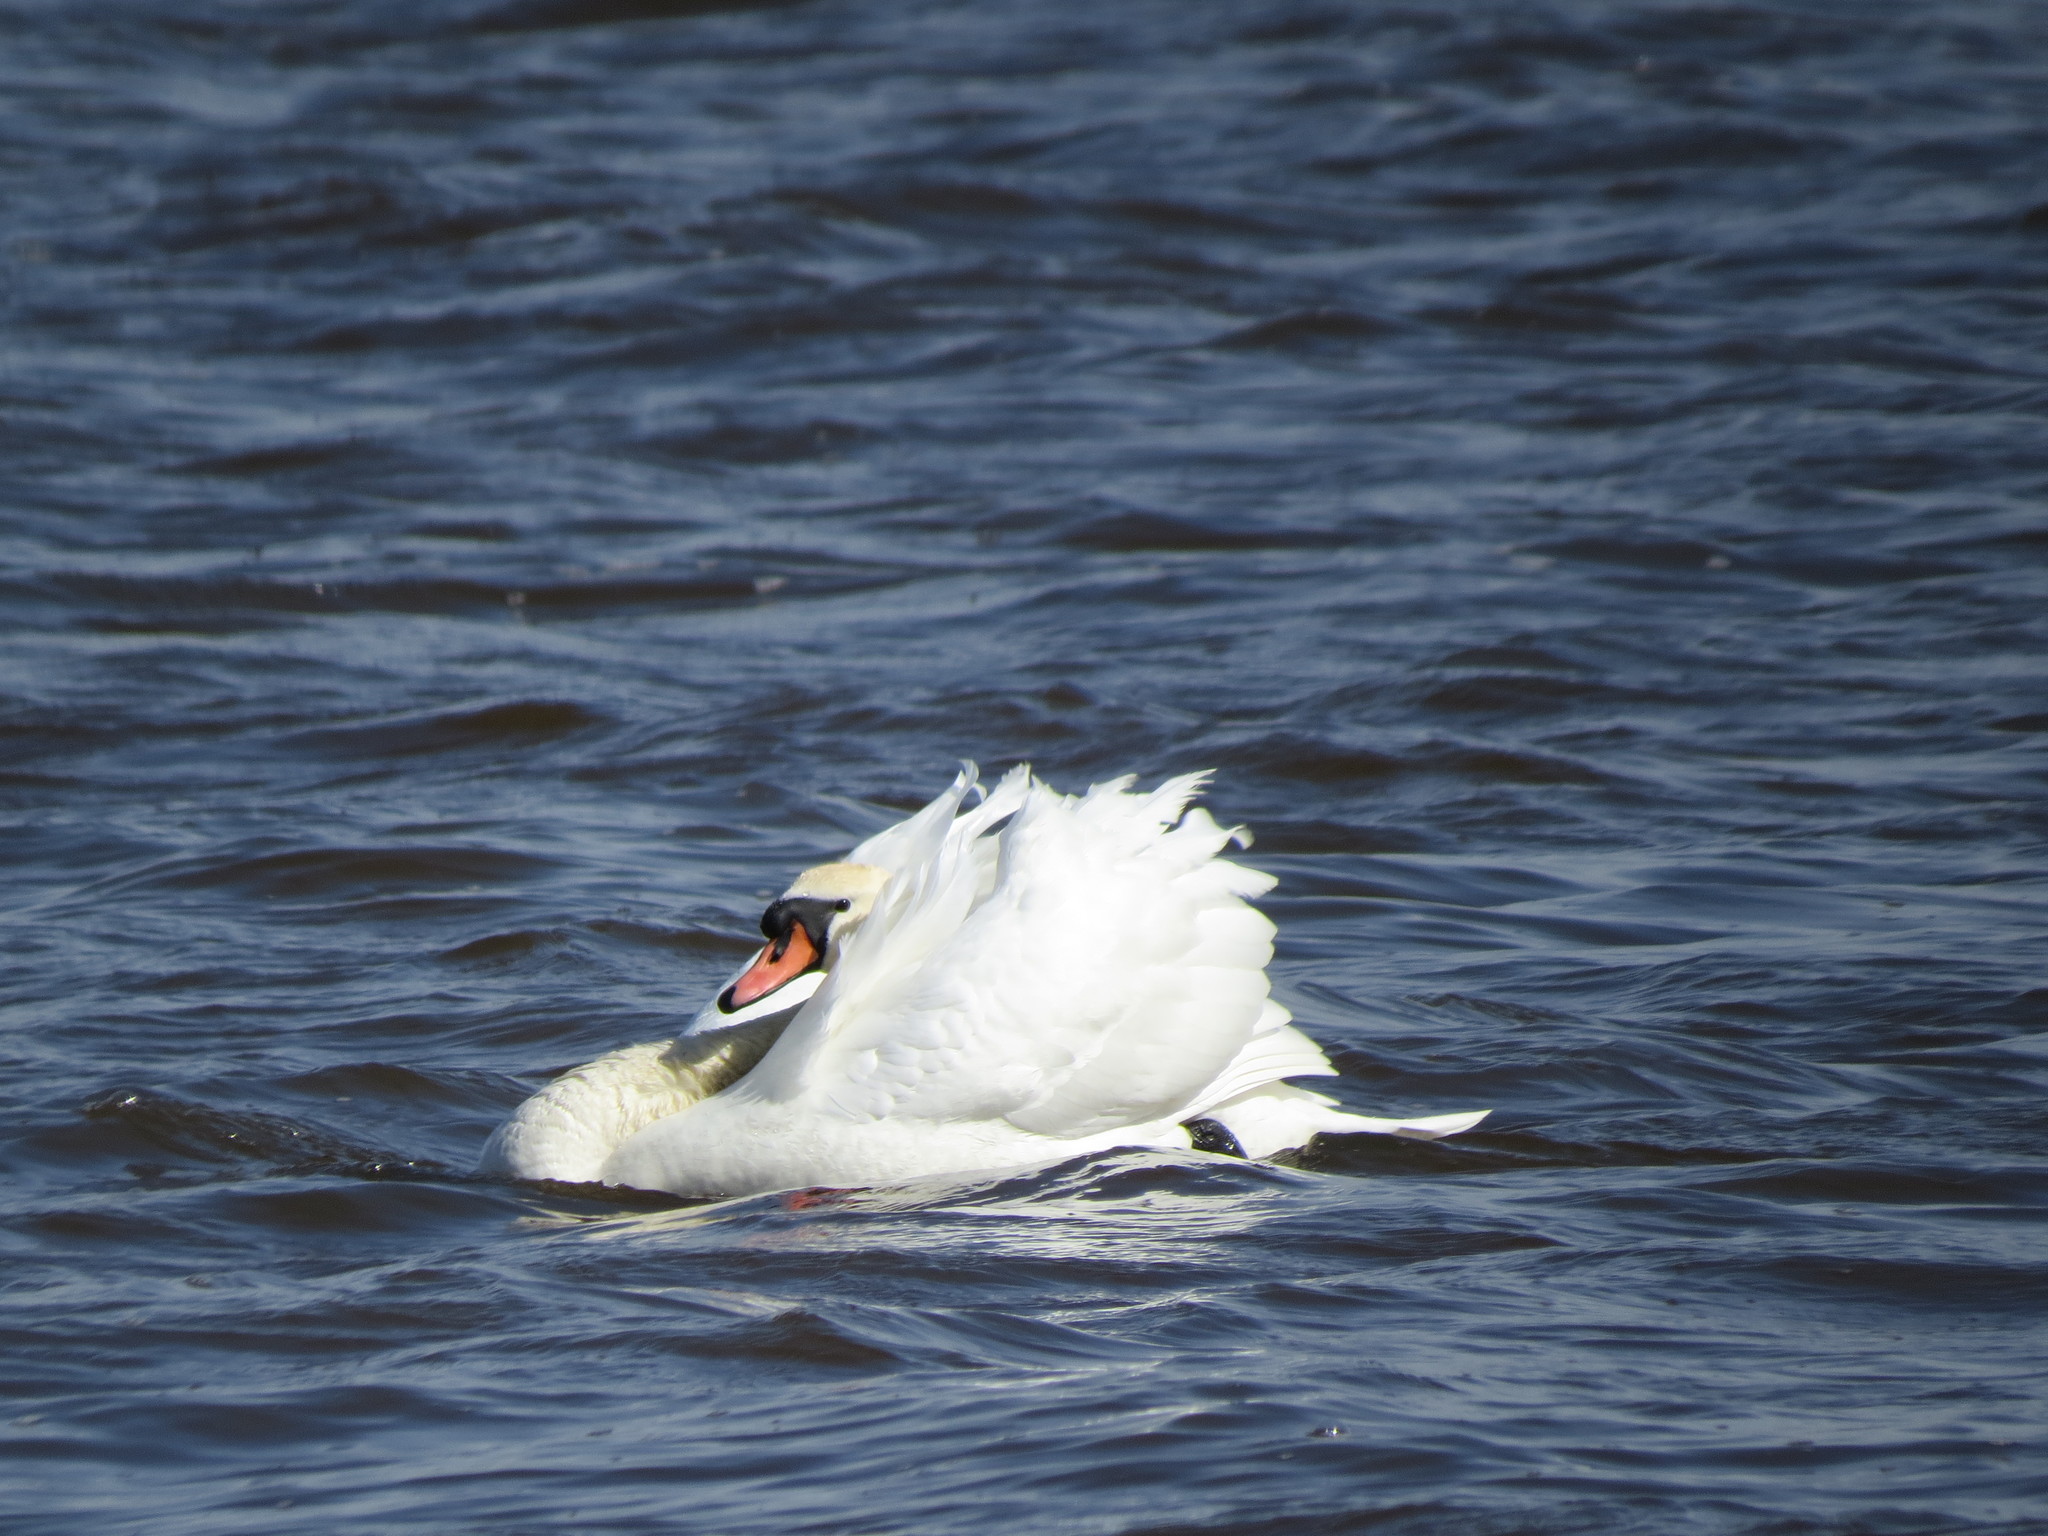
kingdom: Animalia
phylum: Chordata
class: Aves
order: Anseriformes
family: Anatidae
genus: Cygnus
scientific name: Cygnus olor
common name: Mute swan
